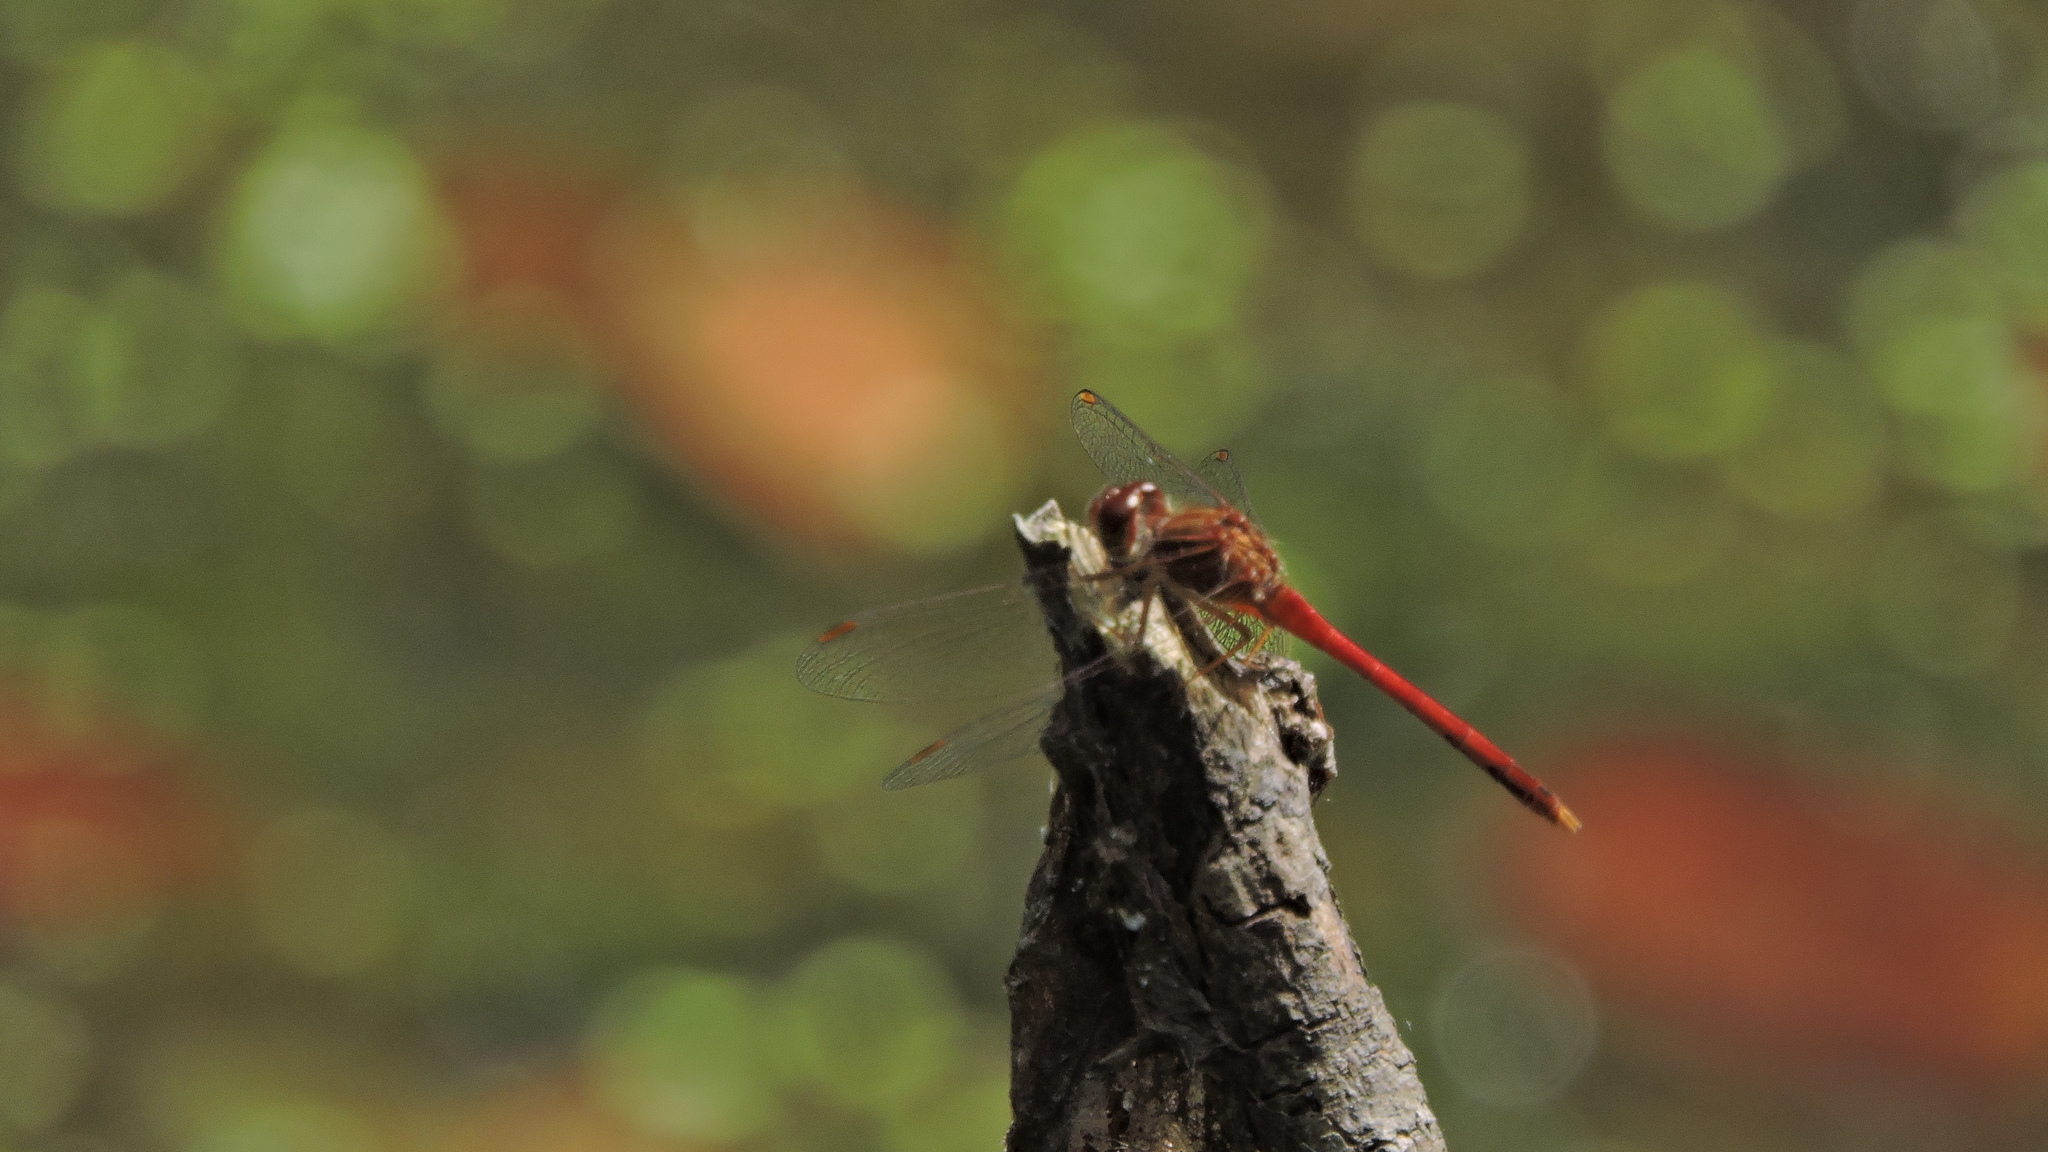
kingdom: Animalia
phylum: Arthropoda
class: Insecta
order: Odonata
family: Libellulidae
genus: Sympetrum
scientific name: Sympetrum vicinum
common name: Autumn meadowhawk
